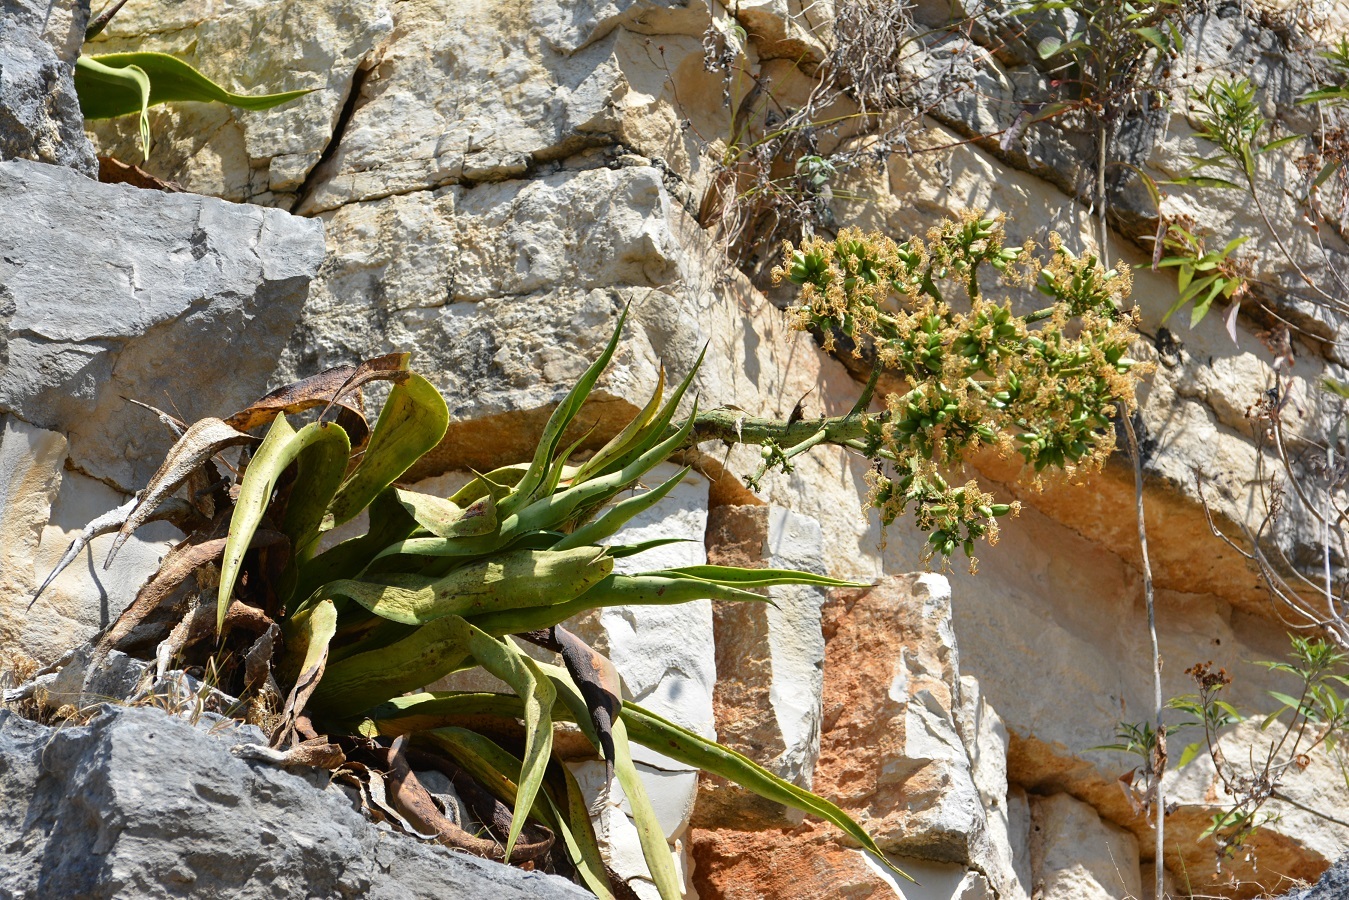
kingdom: Plantae
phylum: Tracheophyta
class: Liliopsida
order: Asparagales
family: Asparagaceae
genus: Agave
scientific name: Agave kewensis
